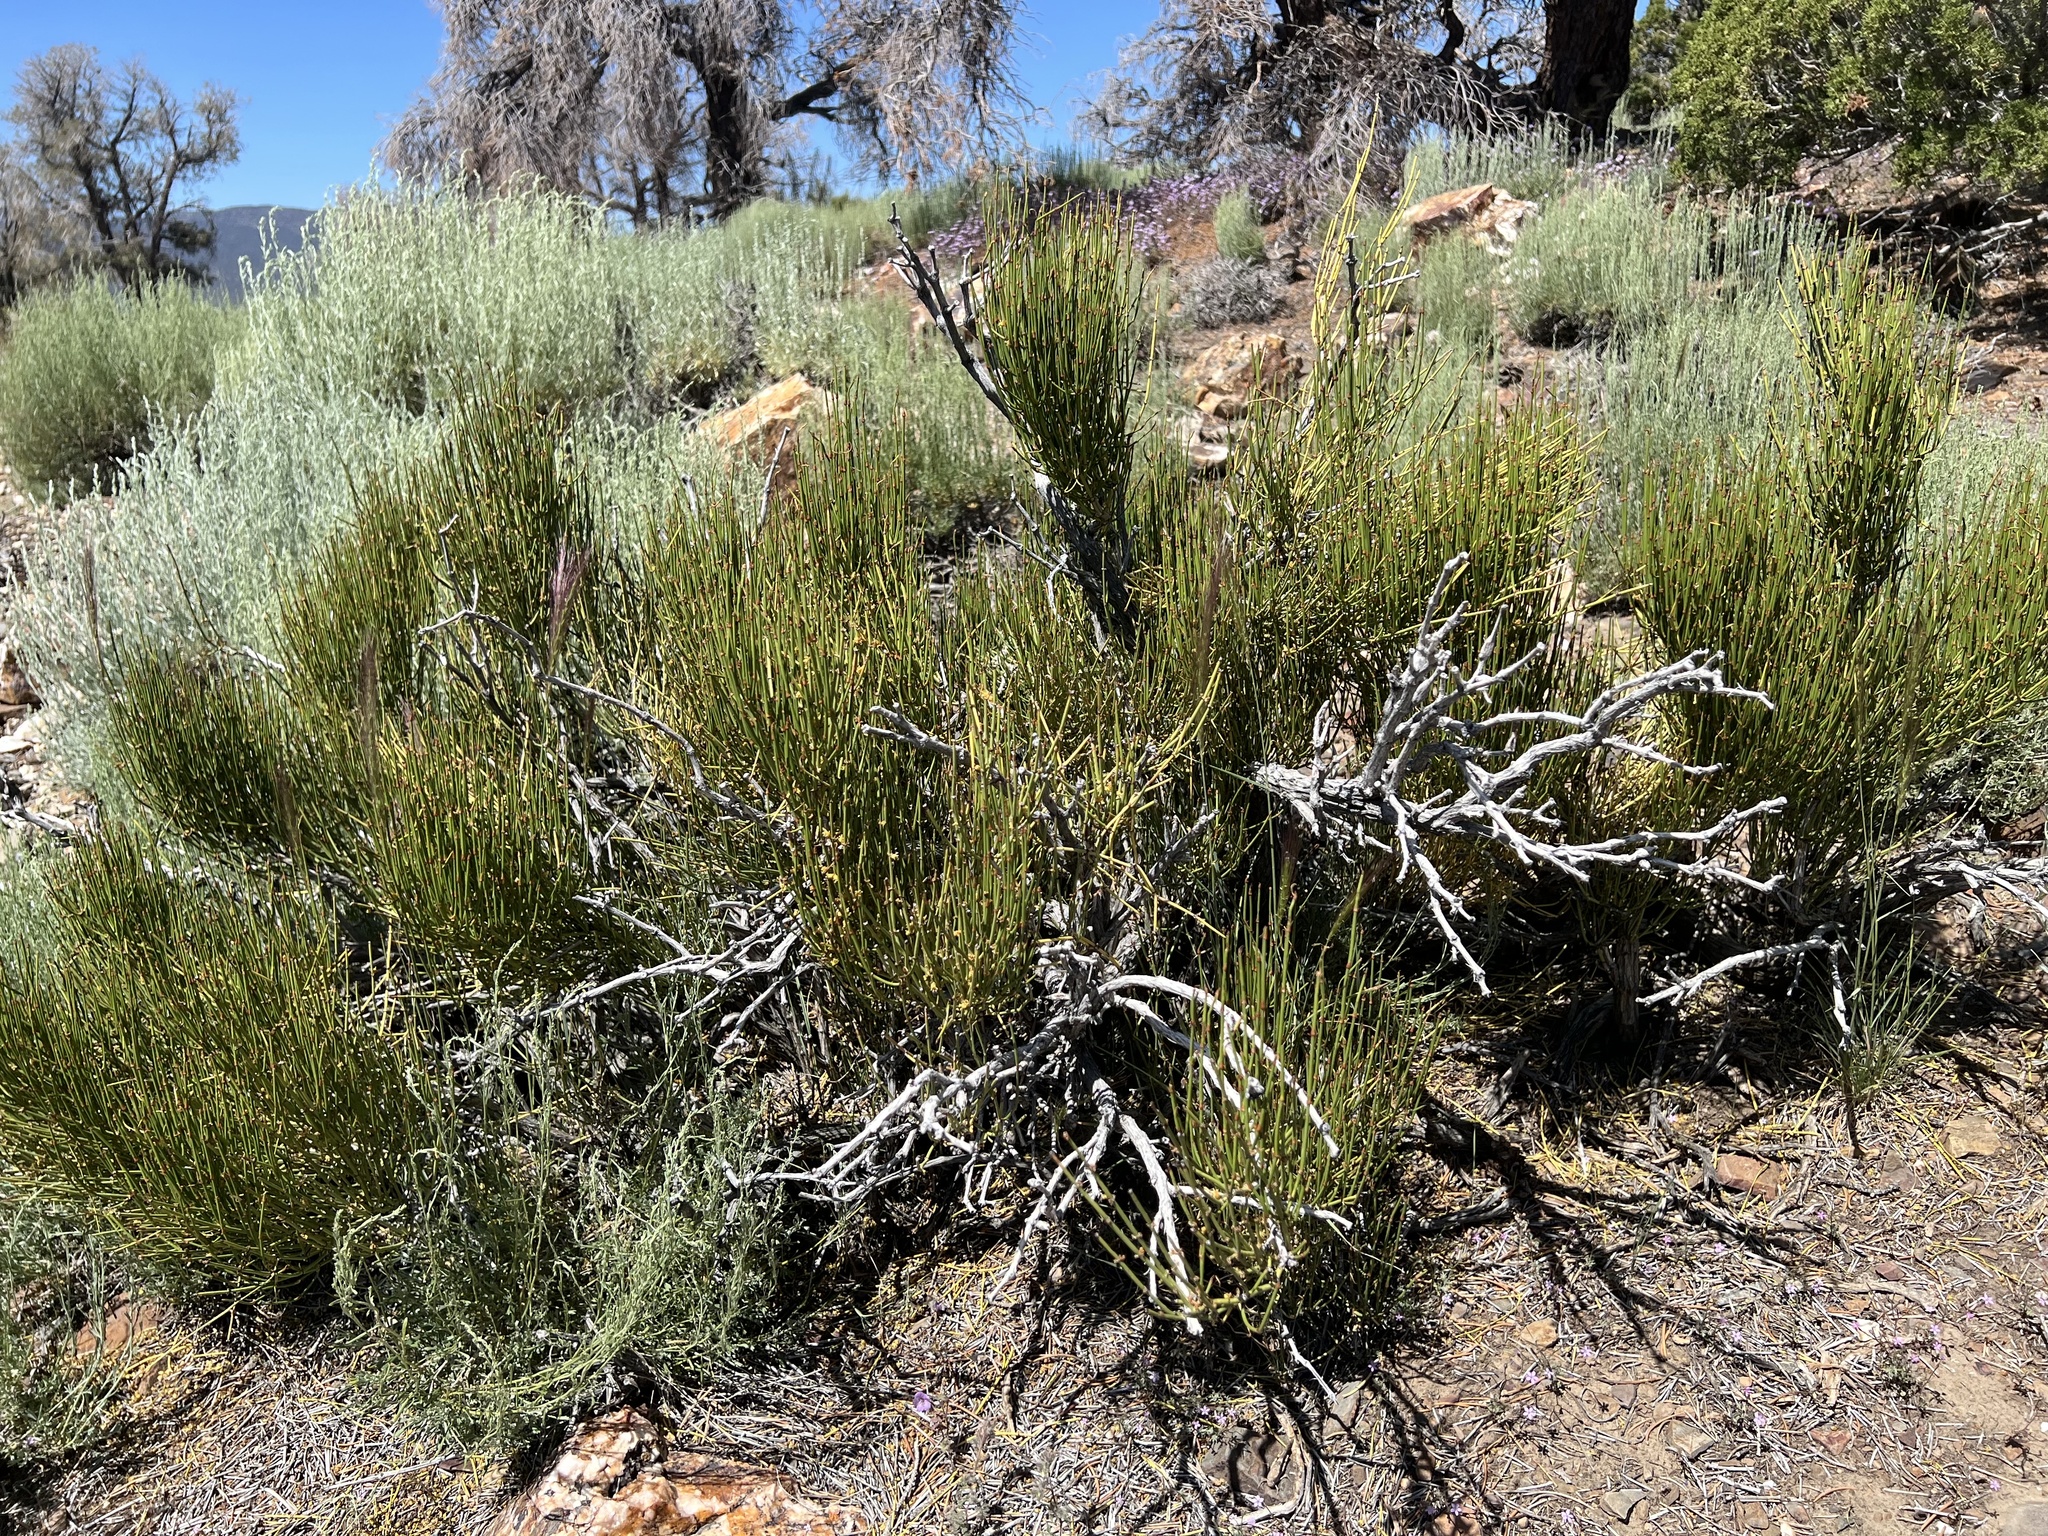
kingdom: Plantae
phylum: Tracheophyta
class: Gnetopsida
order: Ephedrales
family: Ephedraceae
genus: Ephedra
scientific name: Ephedra viridis
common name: Green ephedra
